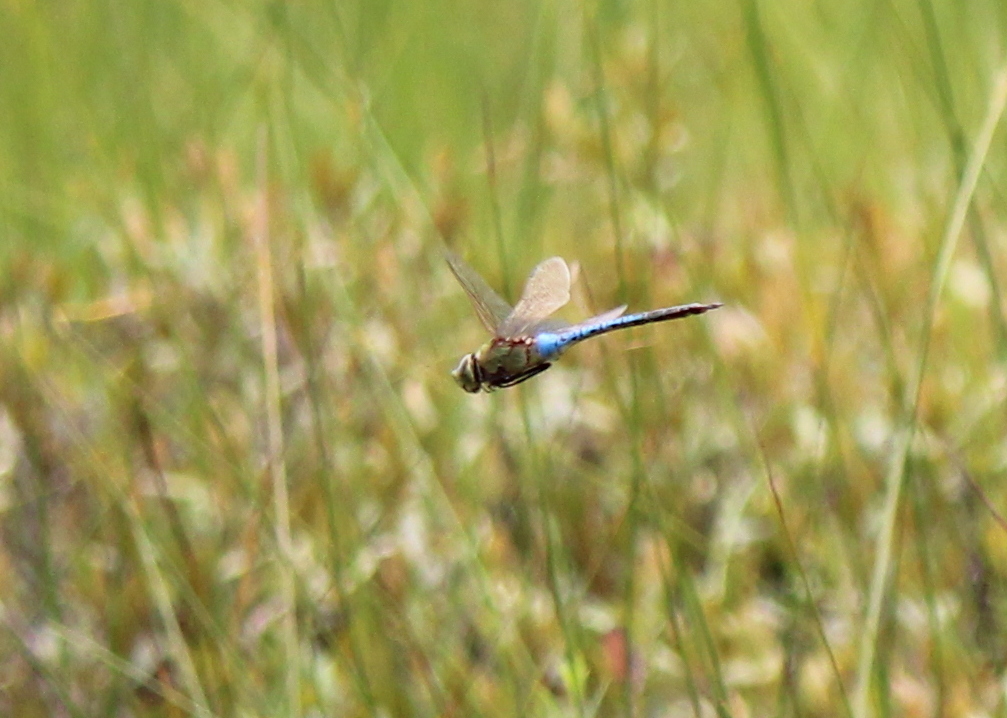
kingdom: Animalia
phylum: Arthropoda
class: Insecta
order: Odonata
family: Aeshnidae
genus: Anax
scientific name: Anax junius
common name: Common green darner
